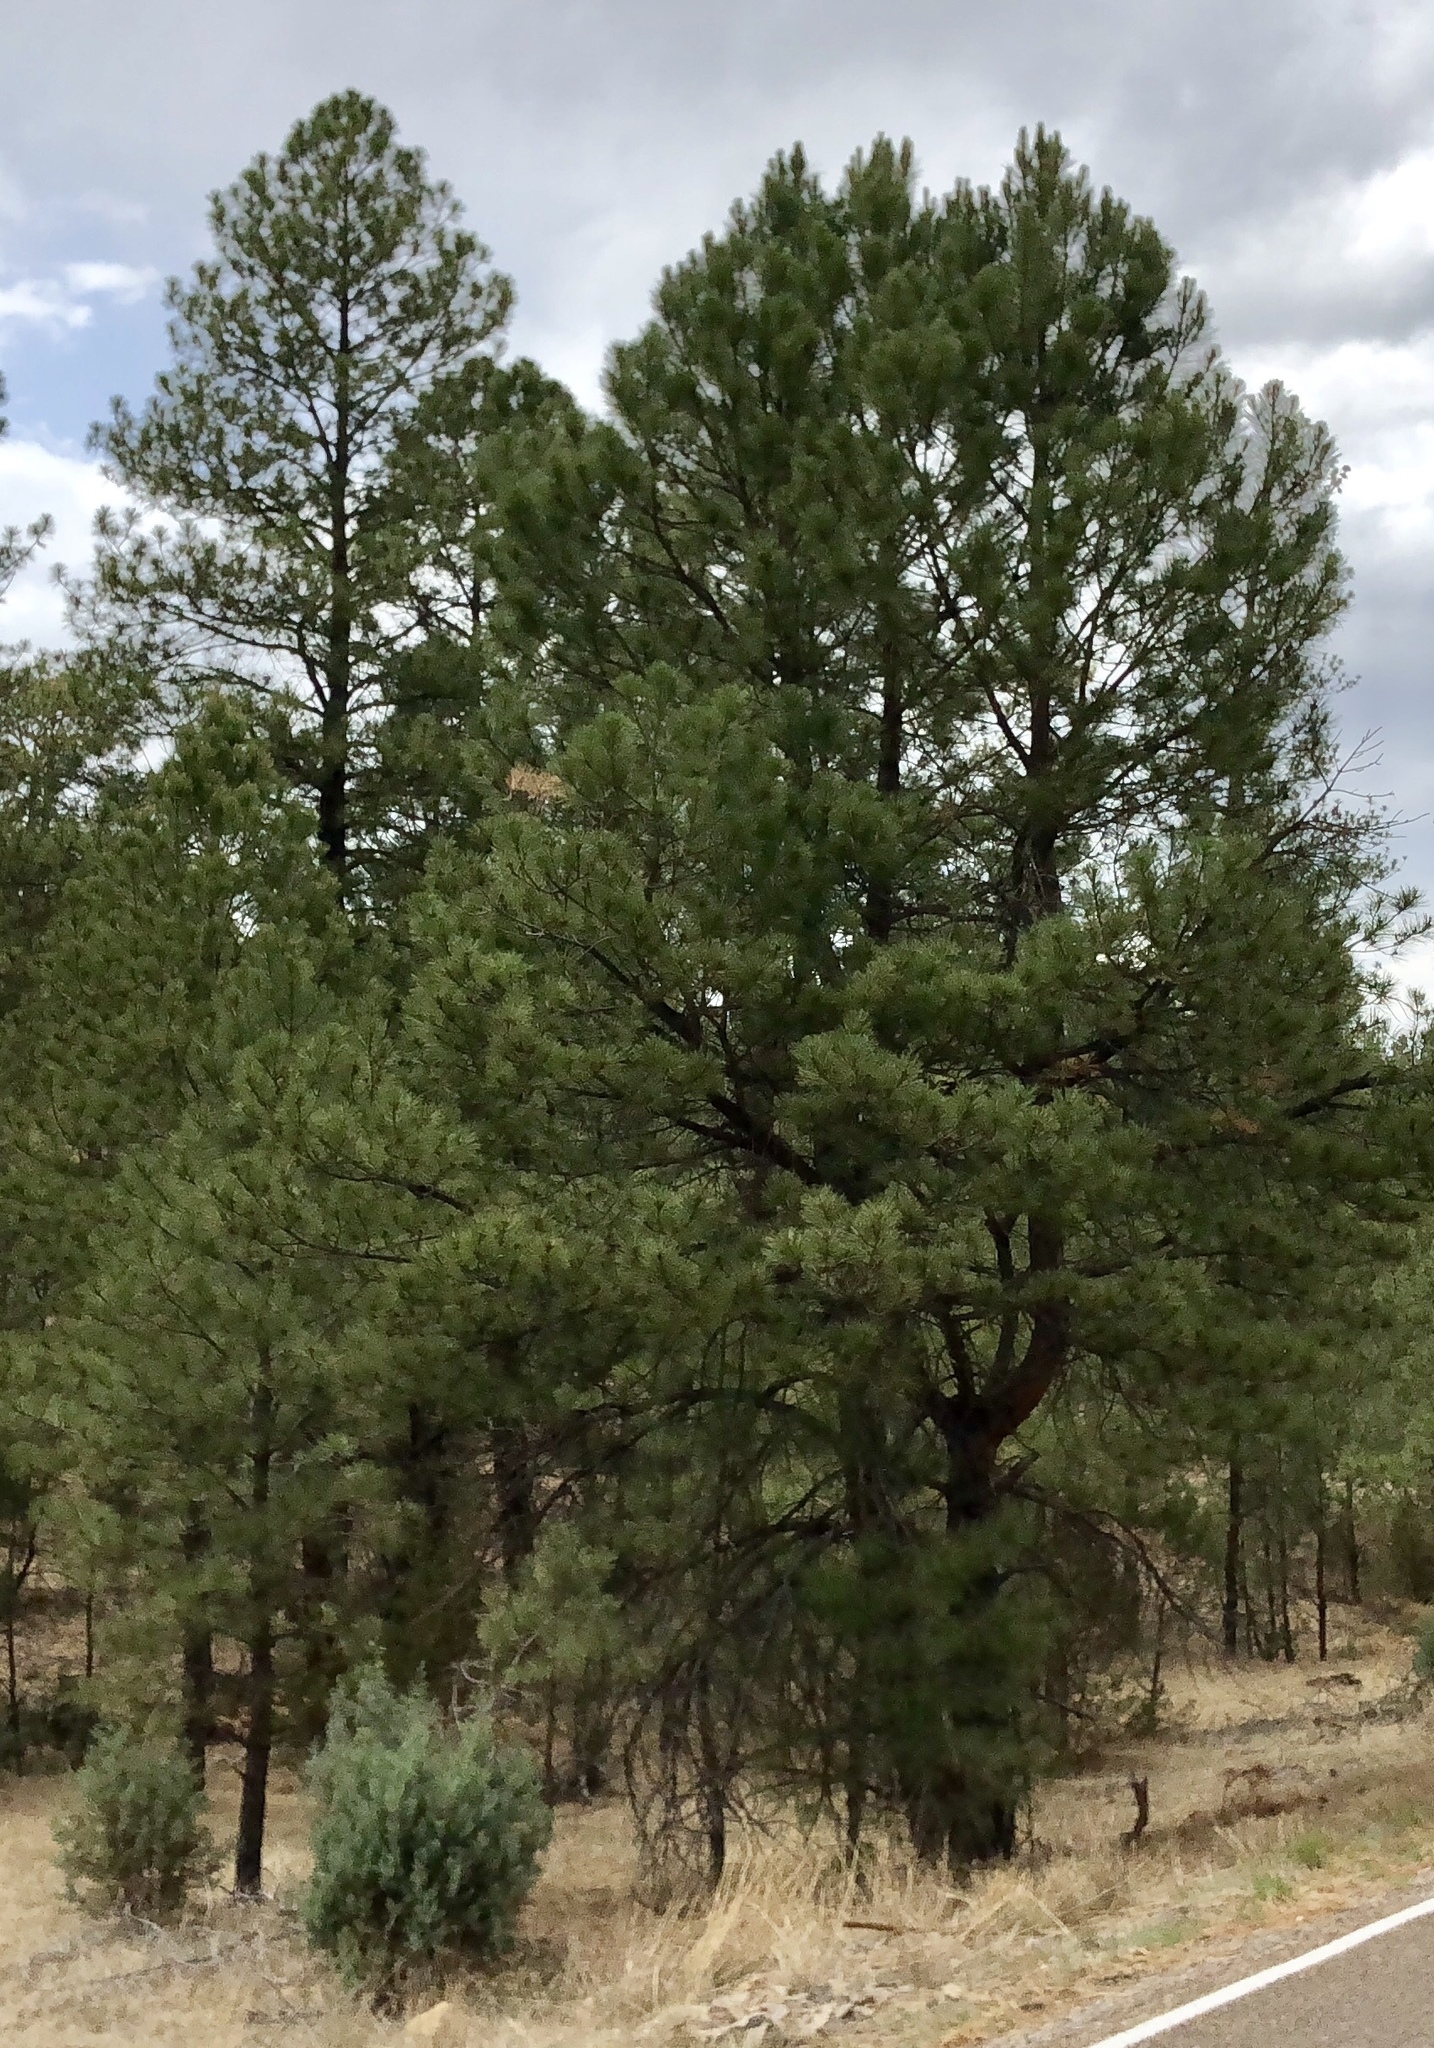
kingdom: Plantae
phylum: Tracheophyta
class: Pinopsida
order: Pinales
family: Pinaceae
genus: Pinus
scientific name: Pinus ponderosa
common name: Western yellow-pine
